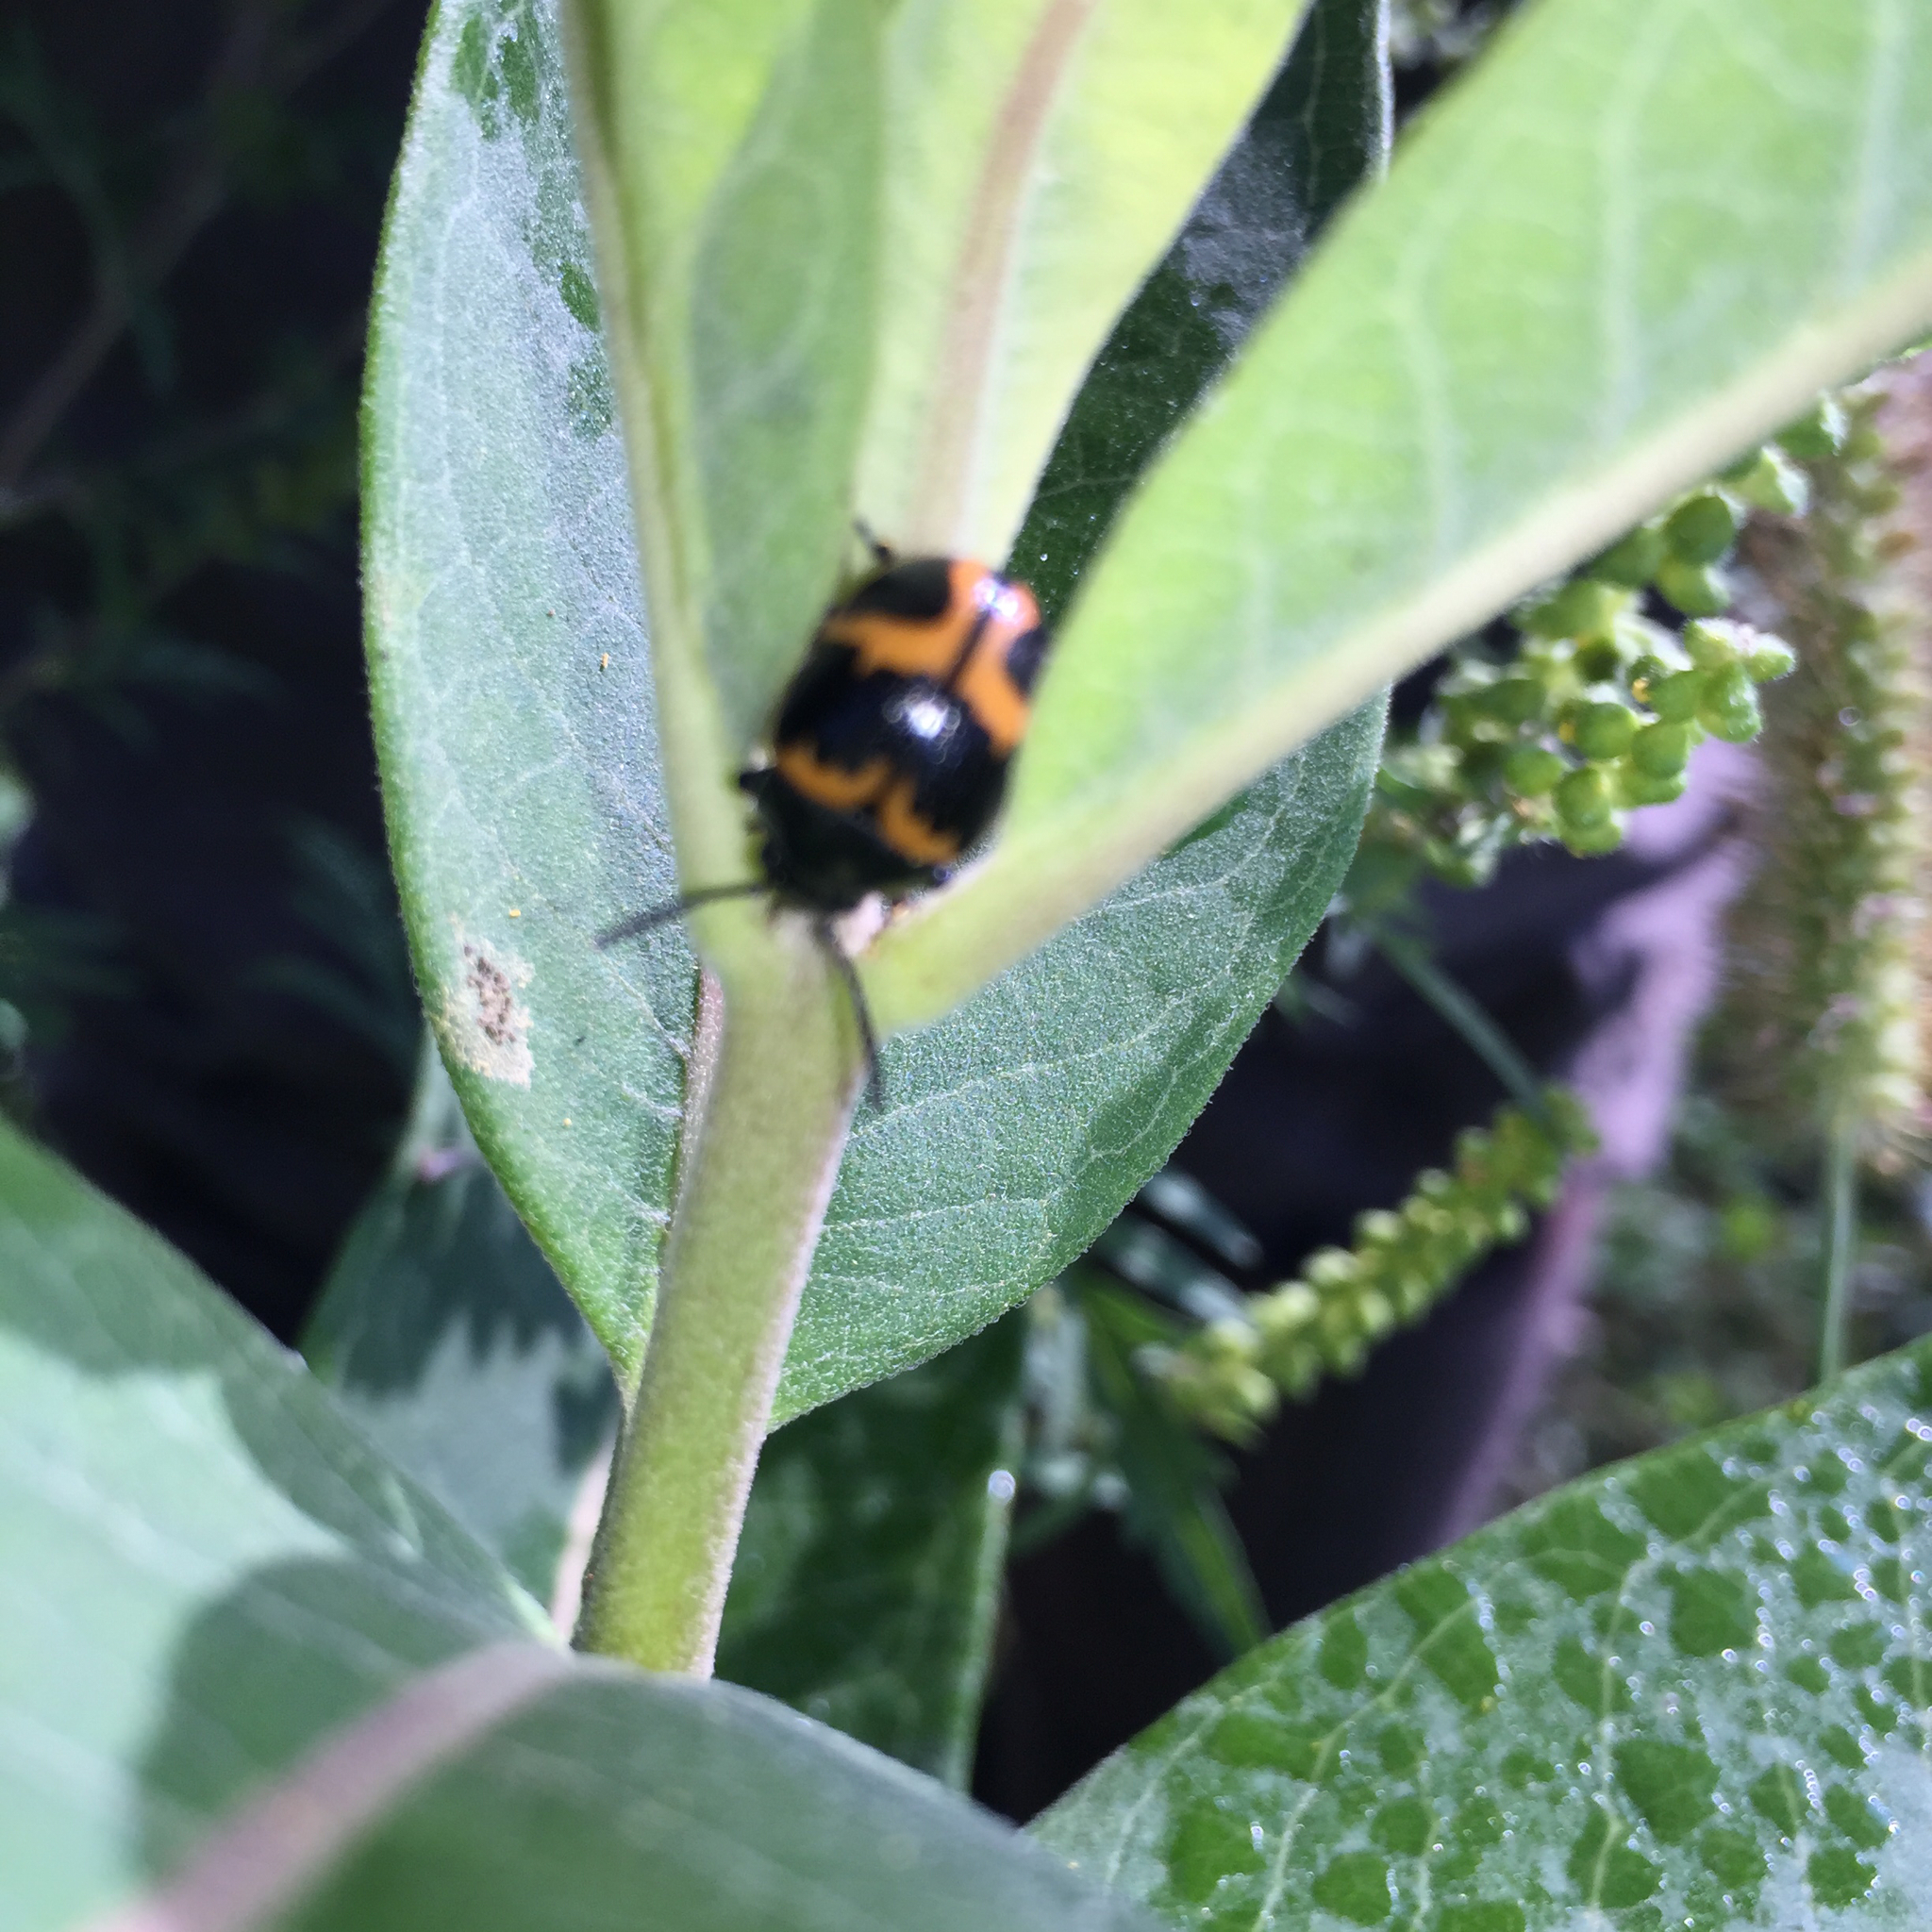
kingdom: Animalia
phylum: Arthropoda
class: Insecta
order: Coleoptera
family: Chrysomelidae
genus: Labidomera
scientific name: Labidomera clivicollis
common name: Swamp milkweed leaf beetle
